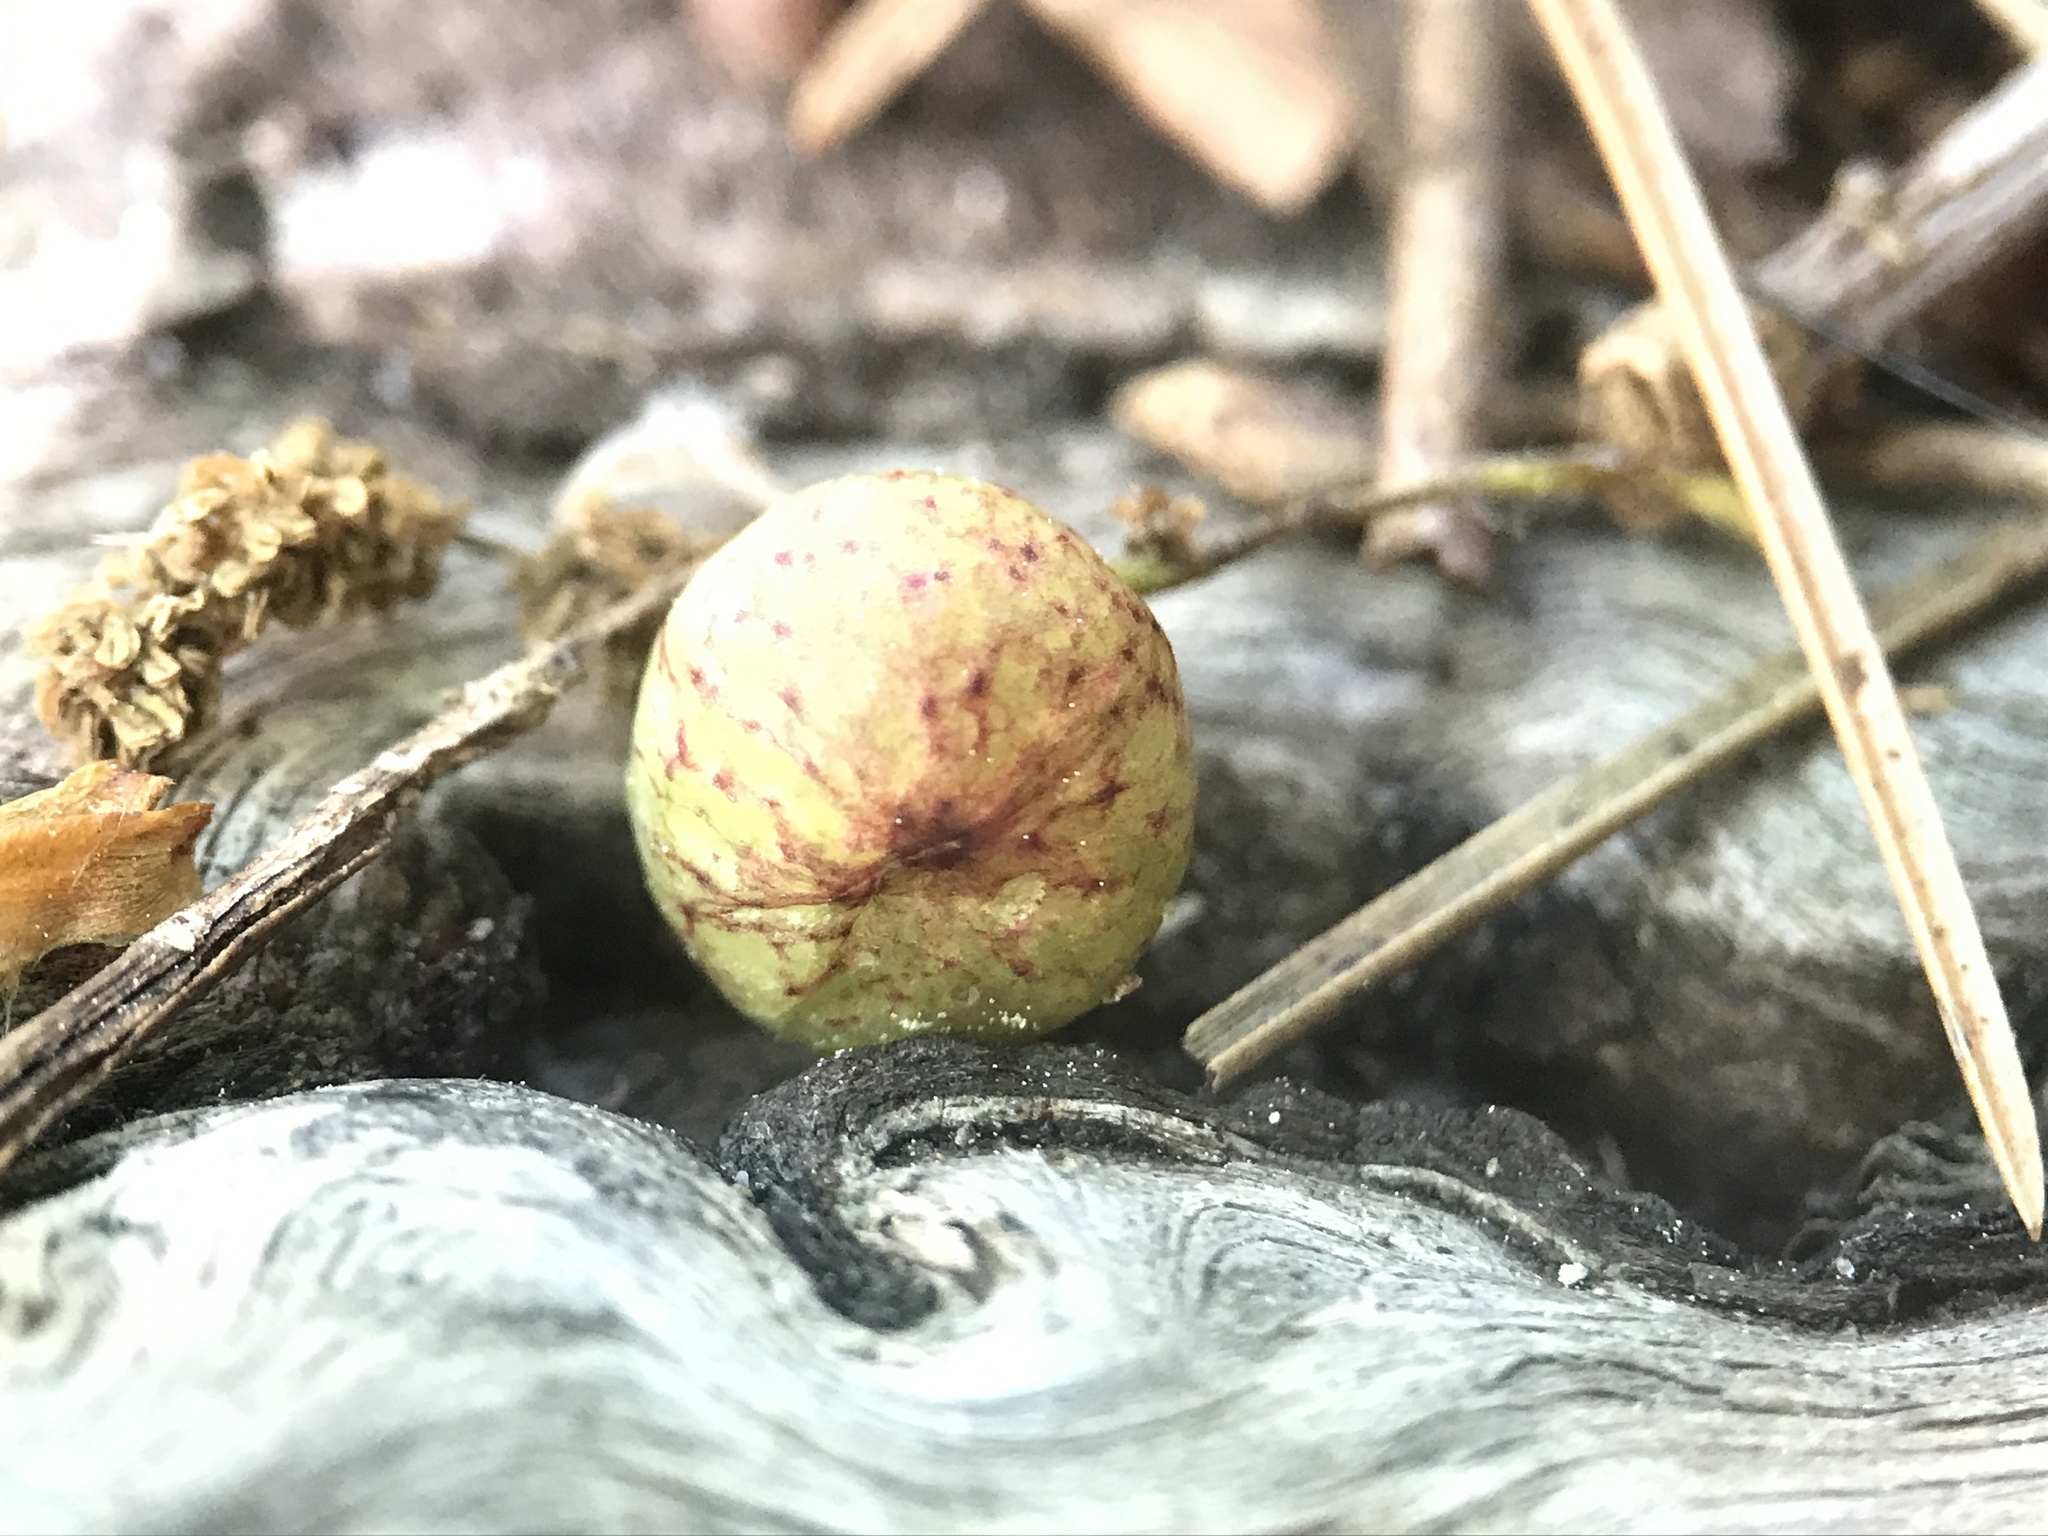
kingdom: Animalia
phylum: Arthropoda
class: Insecta
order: Hymenoptera
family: Cynipidae
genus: Neuroterus
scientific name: Neuroterus quercusbaccarum
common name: Common spangle gall
